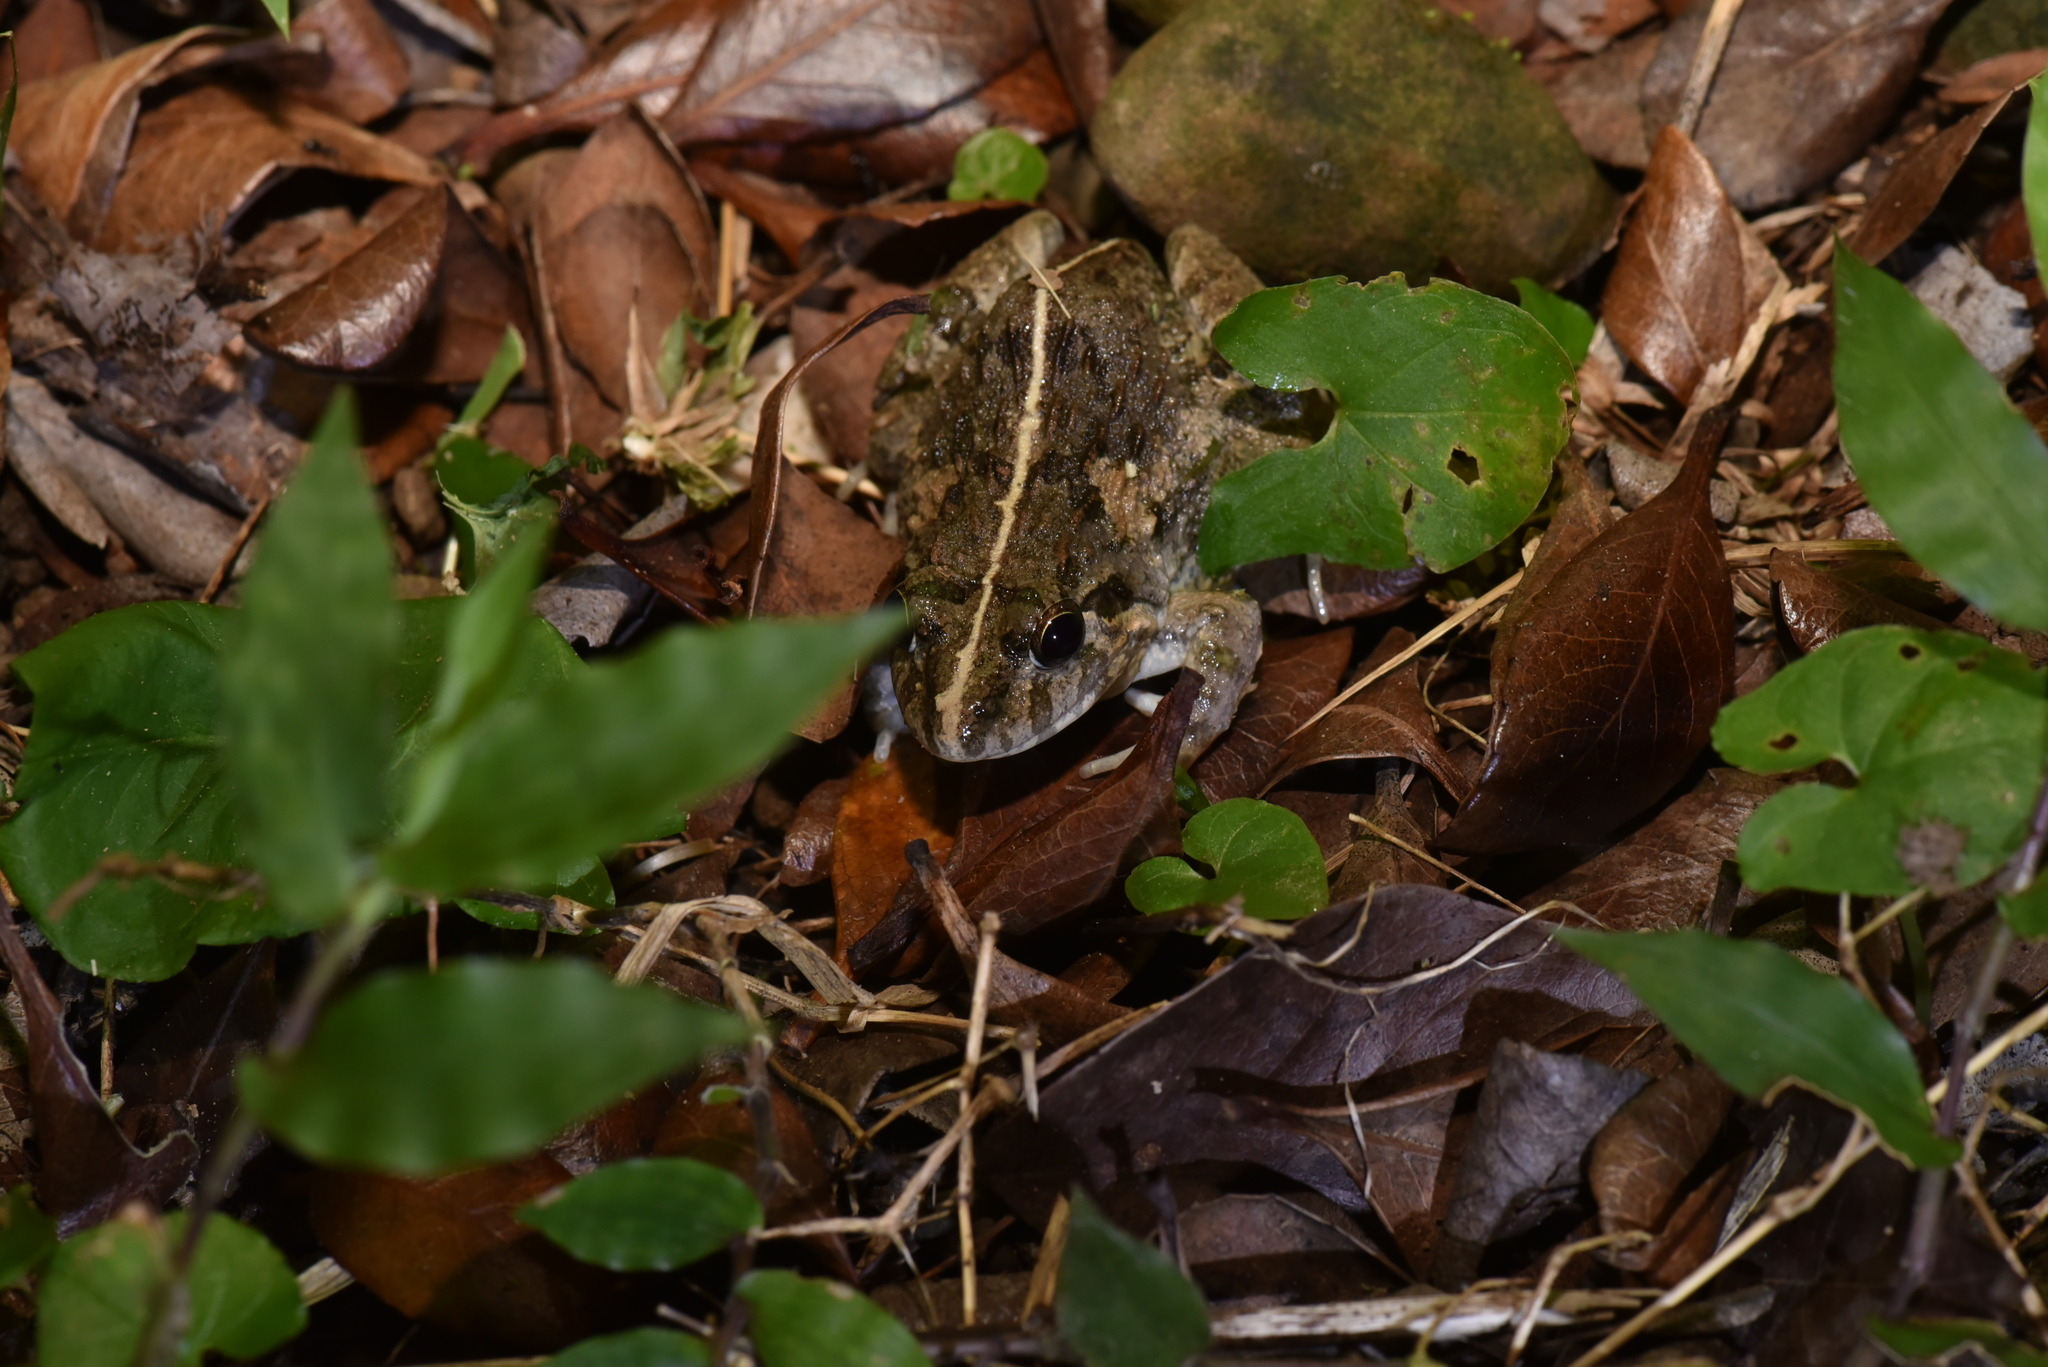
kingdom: Animalia
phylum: Chordata
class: Amphibia
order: Anura
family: Dicroglossidae
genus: Fejervarya
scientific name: Fejervarya limnocharis
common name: Asian grass frog/common pond frog/field frog/grass frog/indian rice frog
